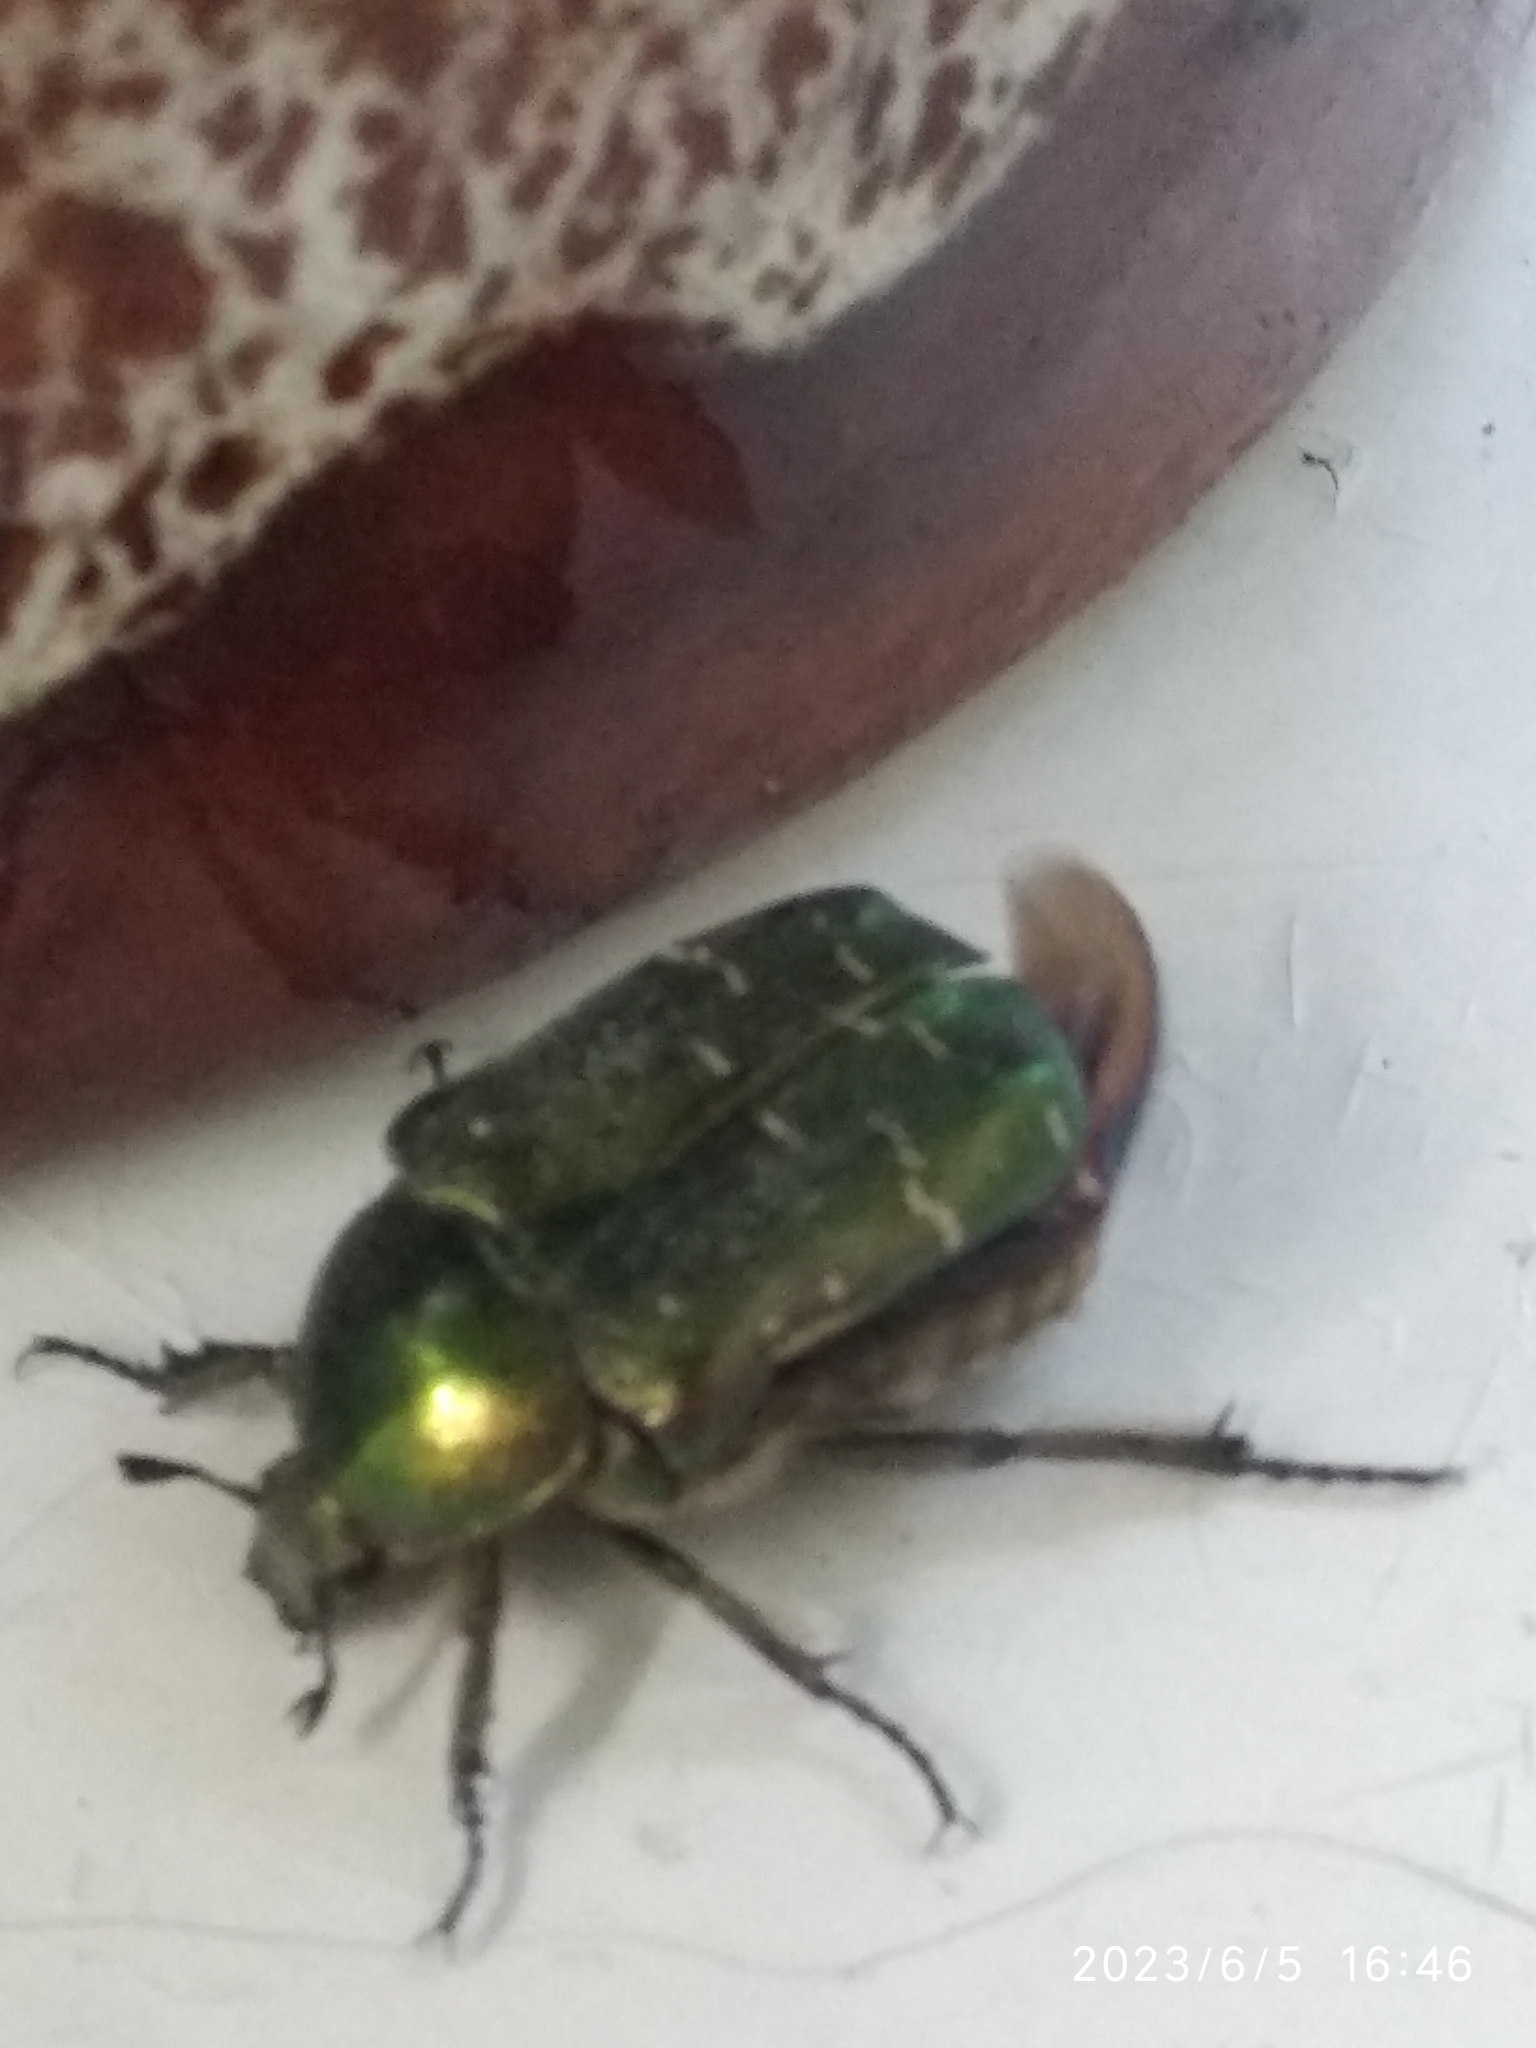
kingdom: Animalia
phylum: Arthropoda
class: Insecta
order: Coleoptera
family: Scarabaeidae
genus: Cetonia
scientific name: Cetonia aurata
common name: Rose chafer
